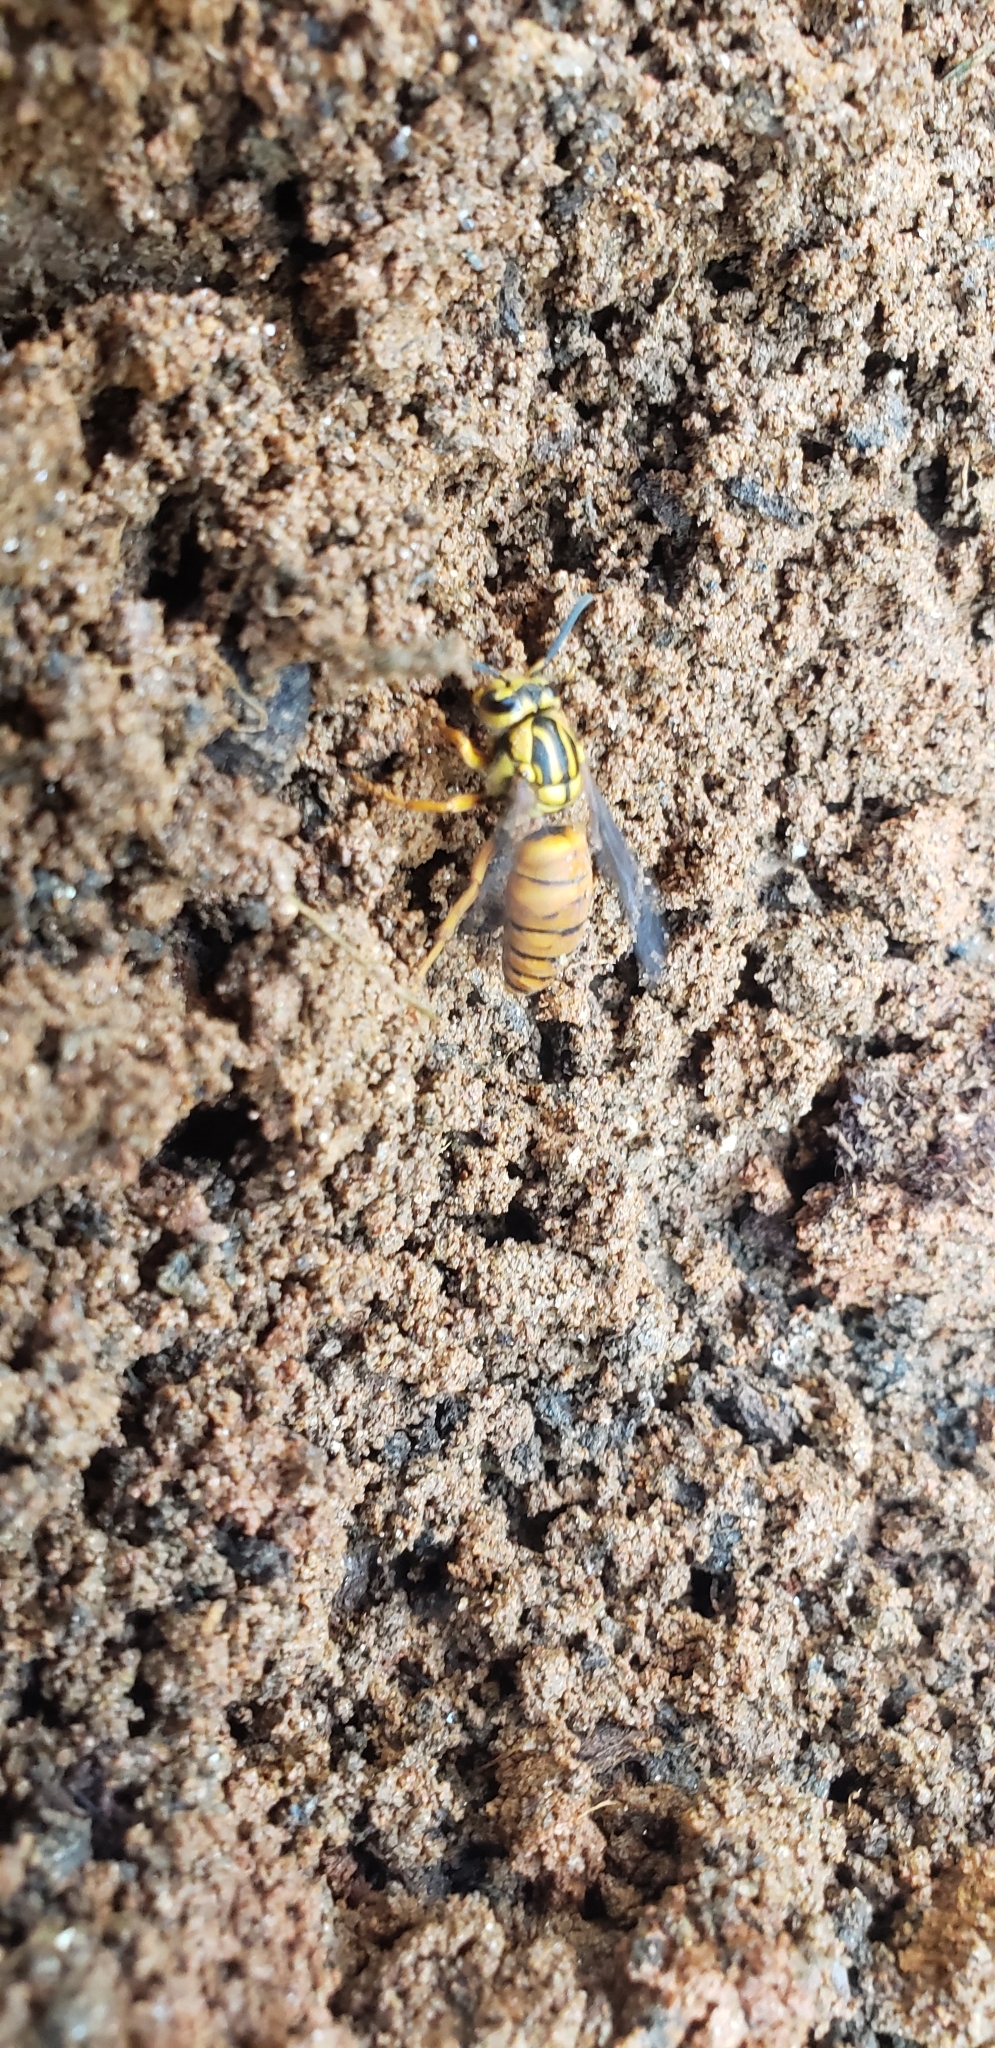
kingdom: Animalia
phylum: Arthropoda
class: Insecta
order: Hymenoptera
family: Vespidae
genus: Vespula
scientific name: Vespula squamosa
